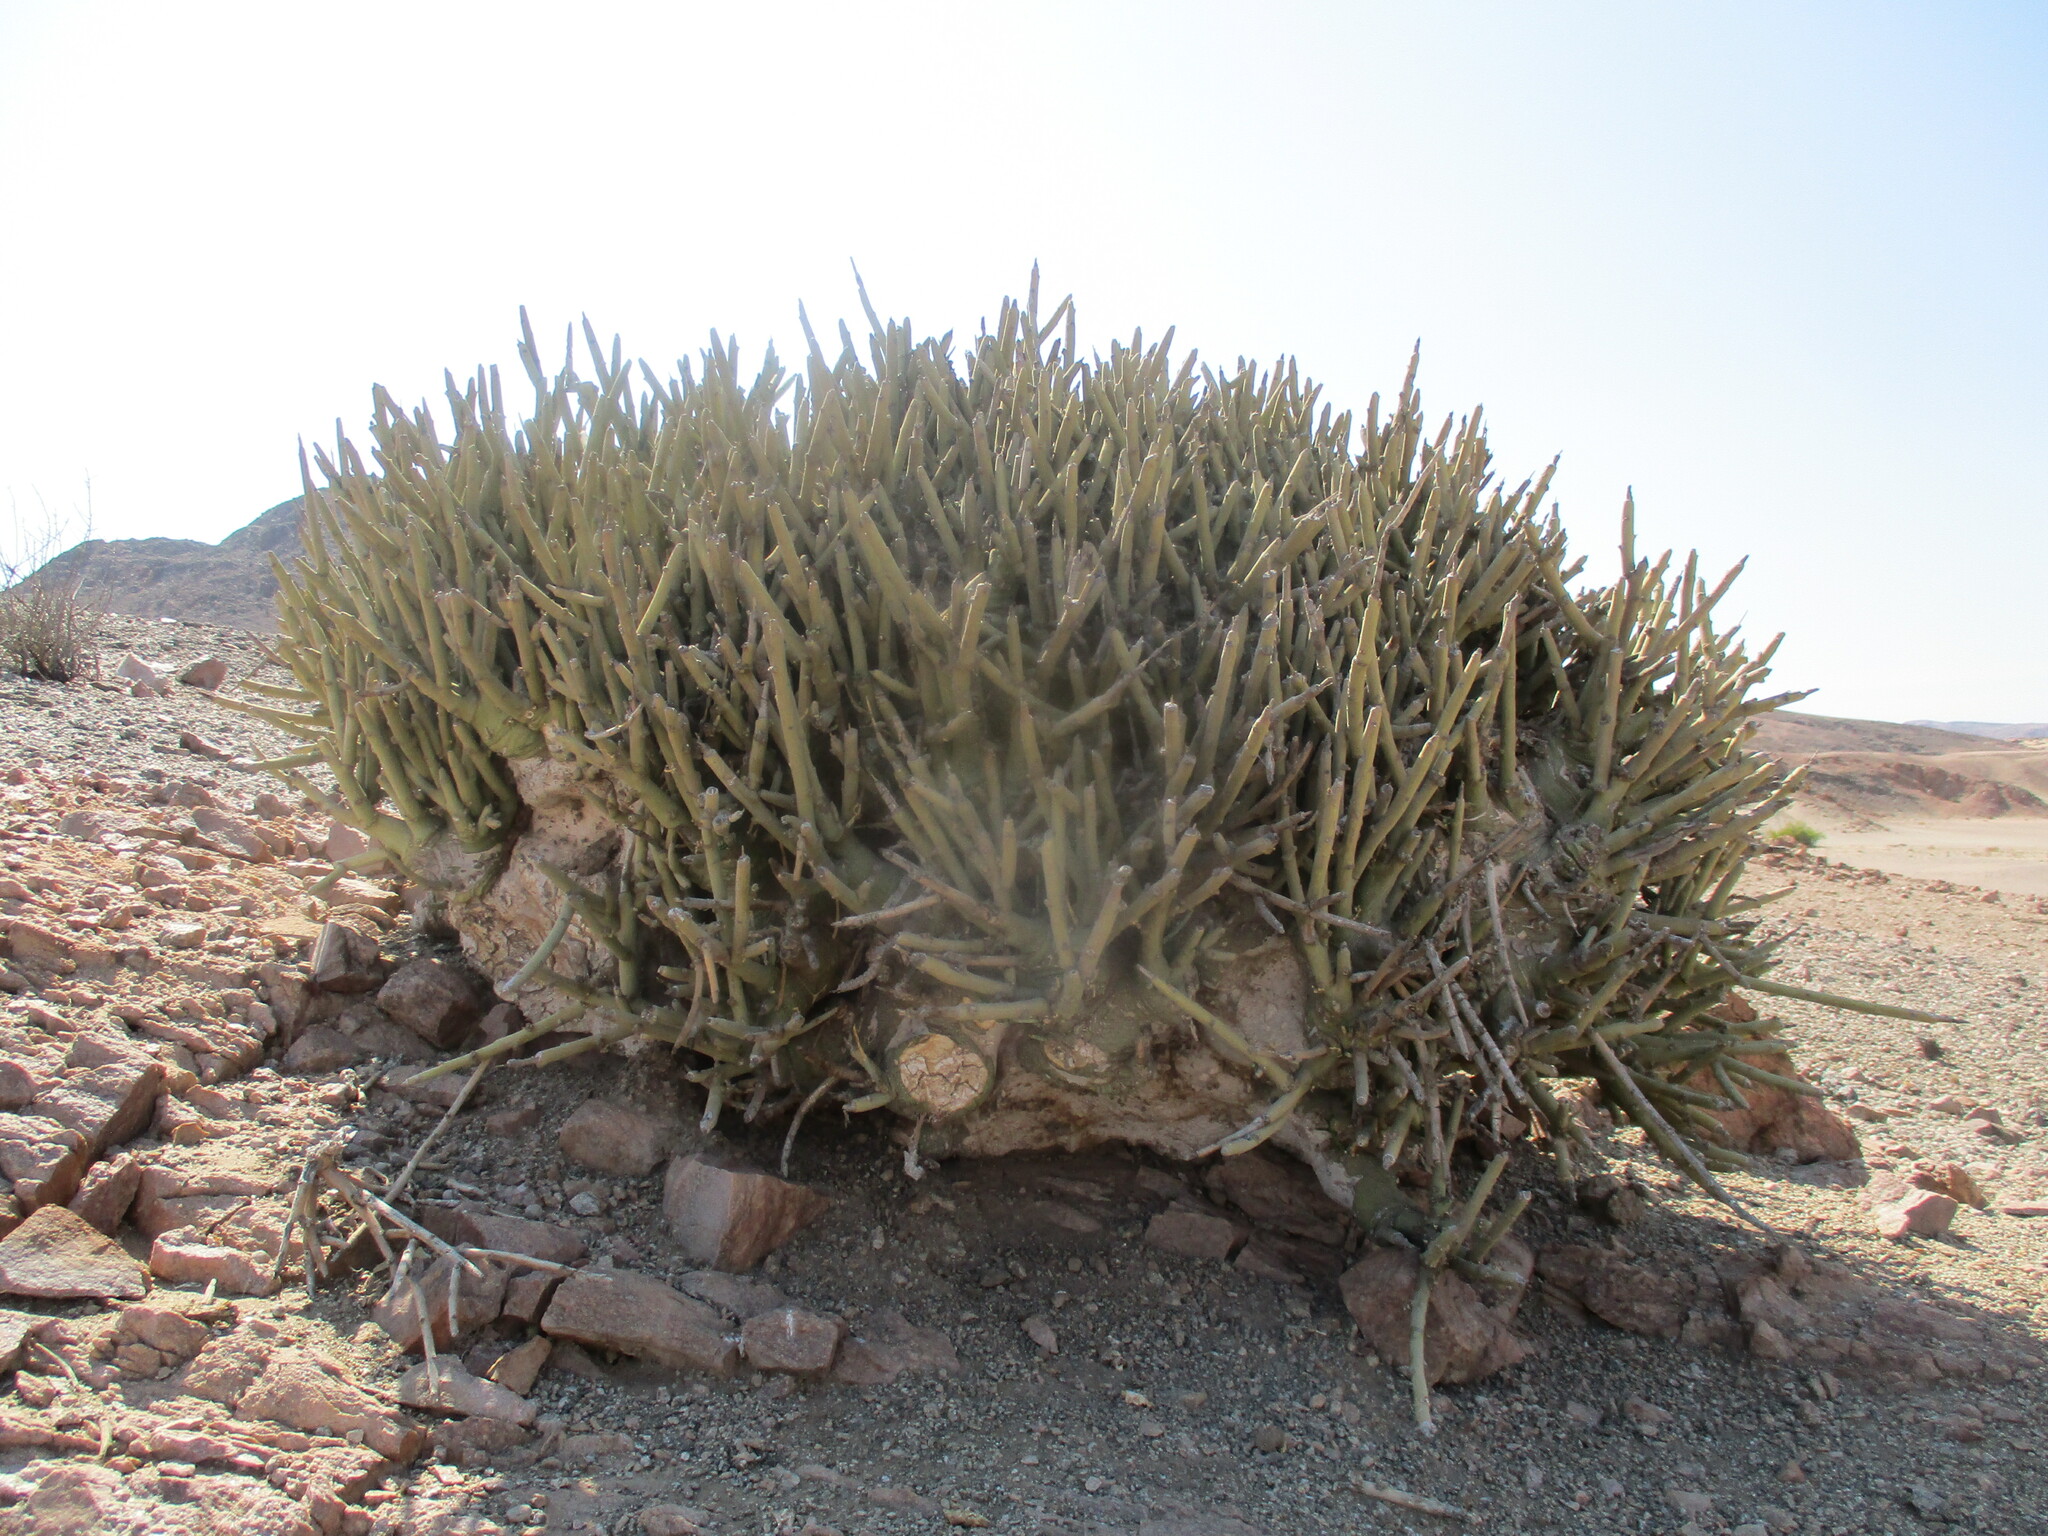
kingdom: Plantae
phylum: Tracheophyta
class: Magnoliopsida
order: Malpighiales
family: Passifloraceae
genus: Adenia
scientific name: Adenia pechuelii
